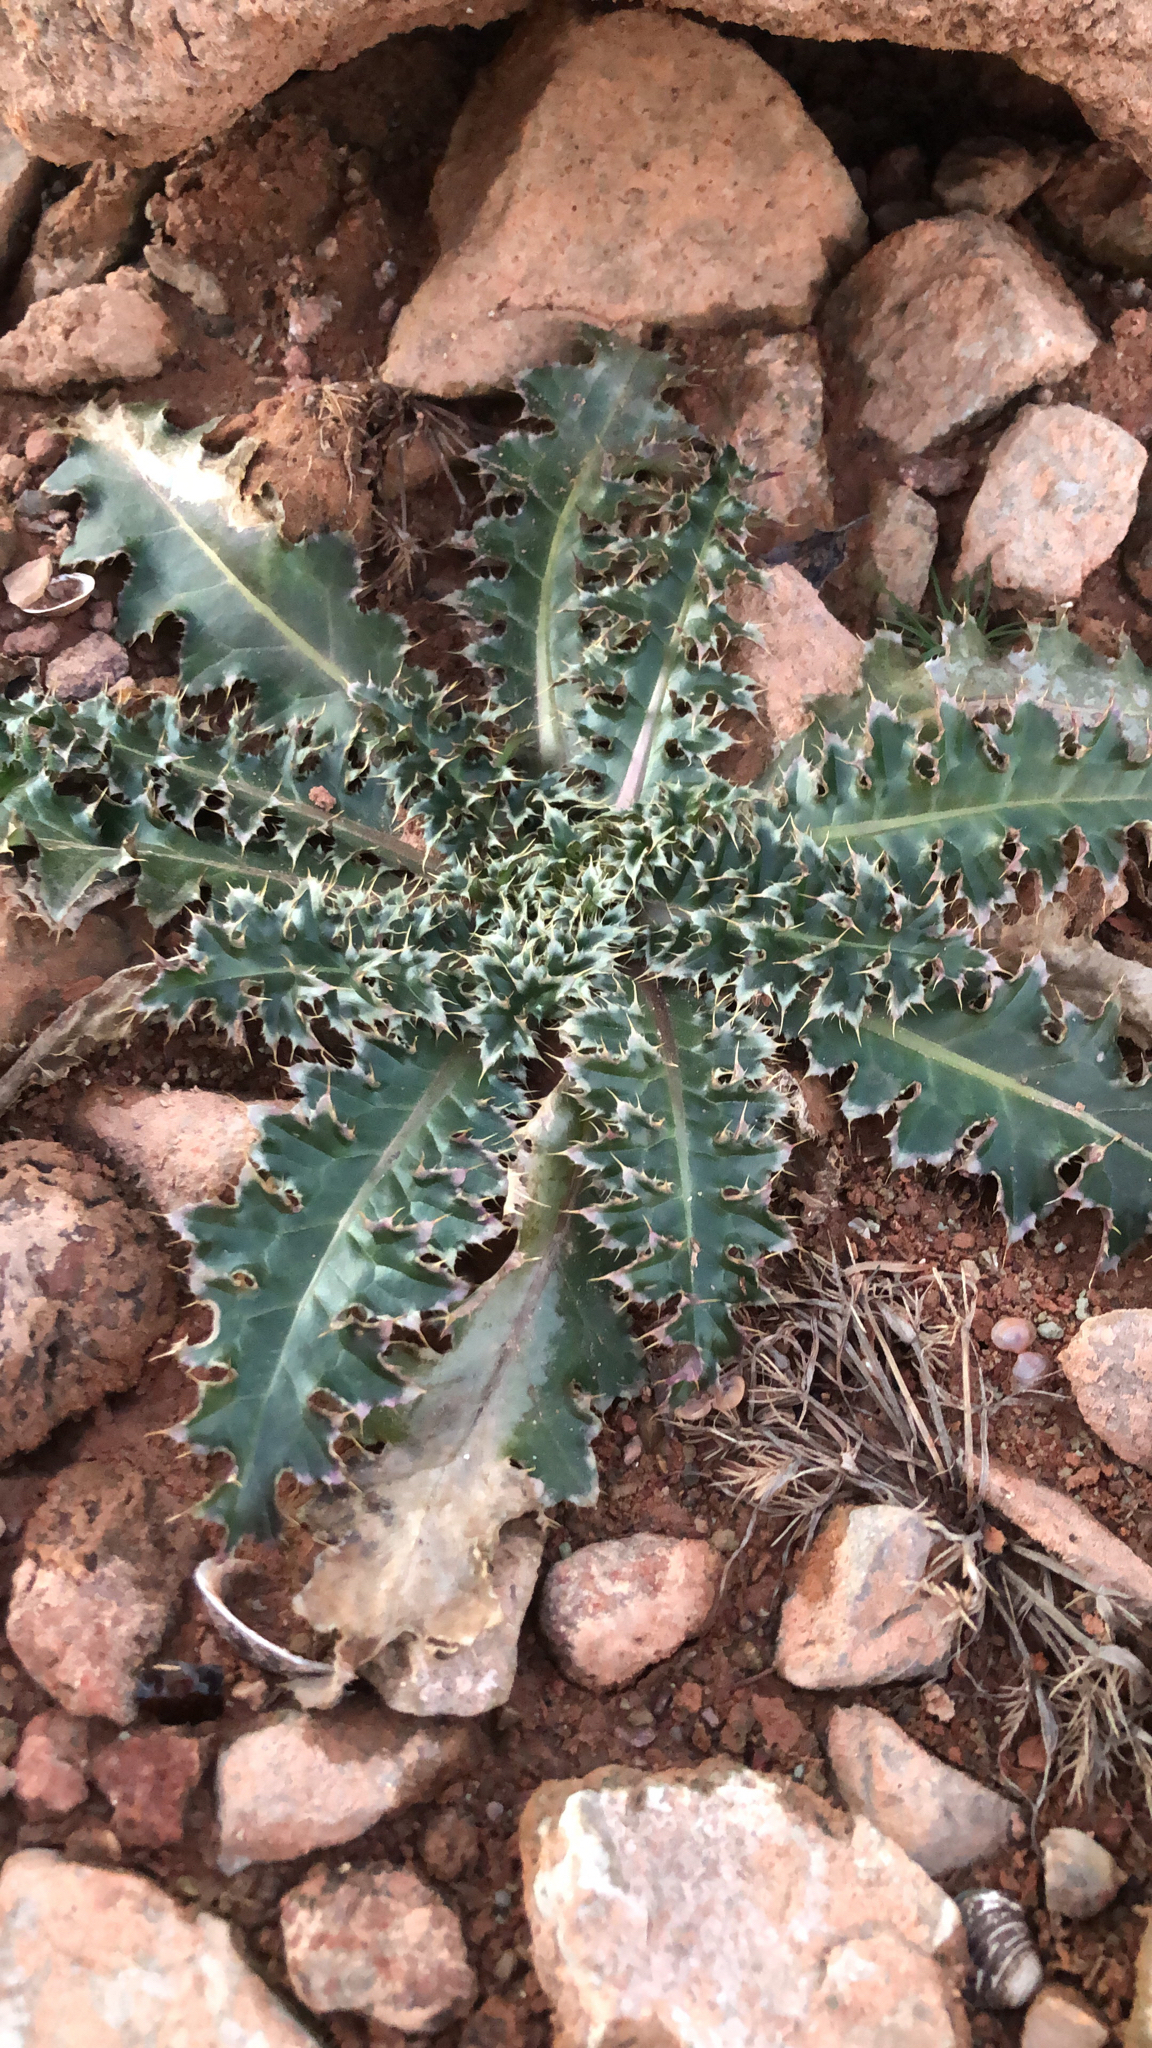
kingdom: Plantae
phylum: Tracheophyta
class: Magnoliopsida
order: Asterales
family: Asteraceae
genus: Carduus
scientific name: Carduus nutans
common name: Musk thistle
